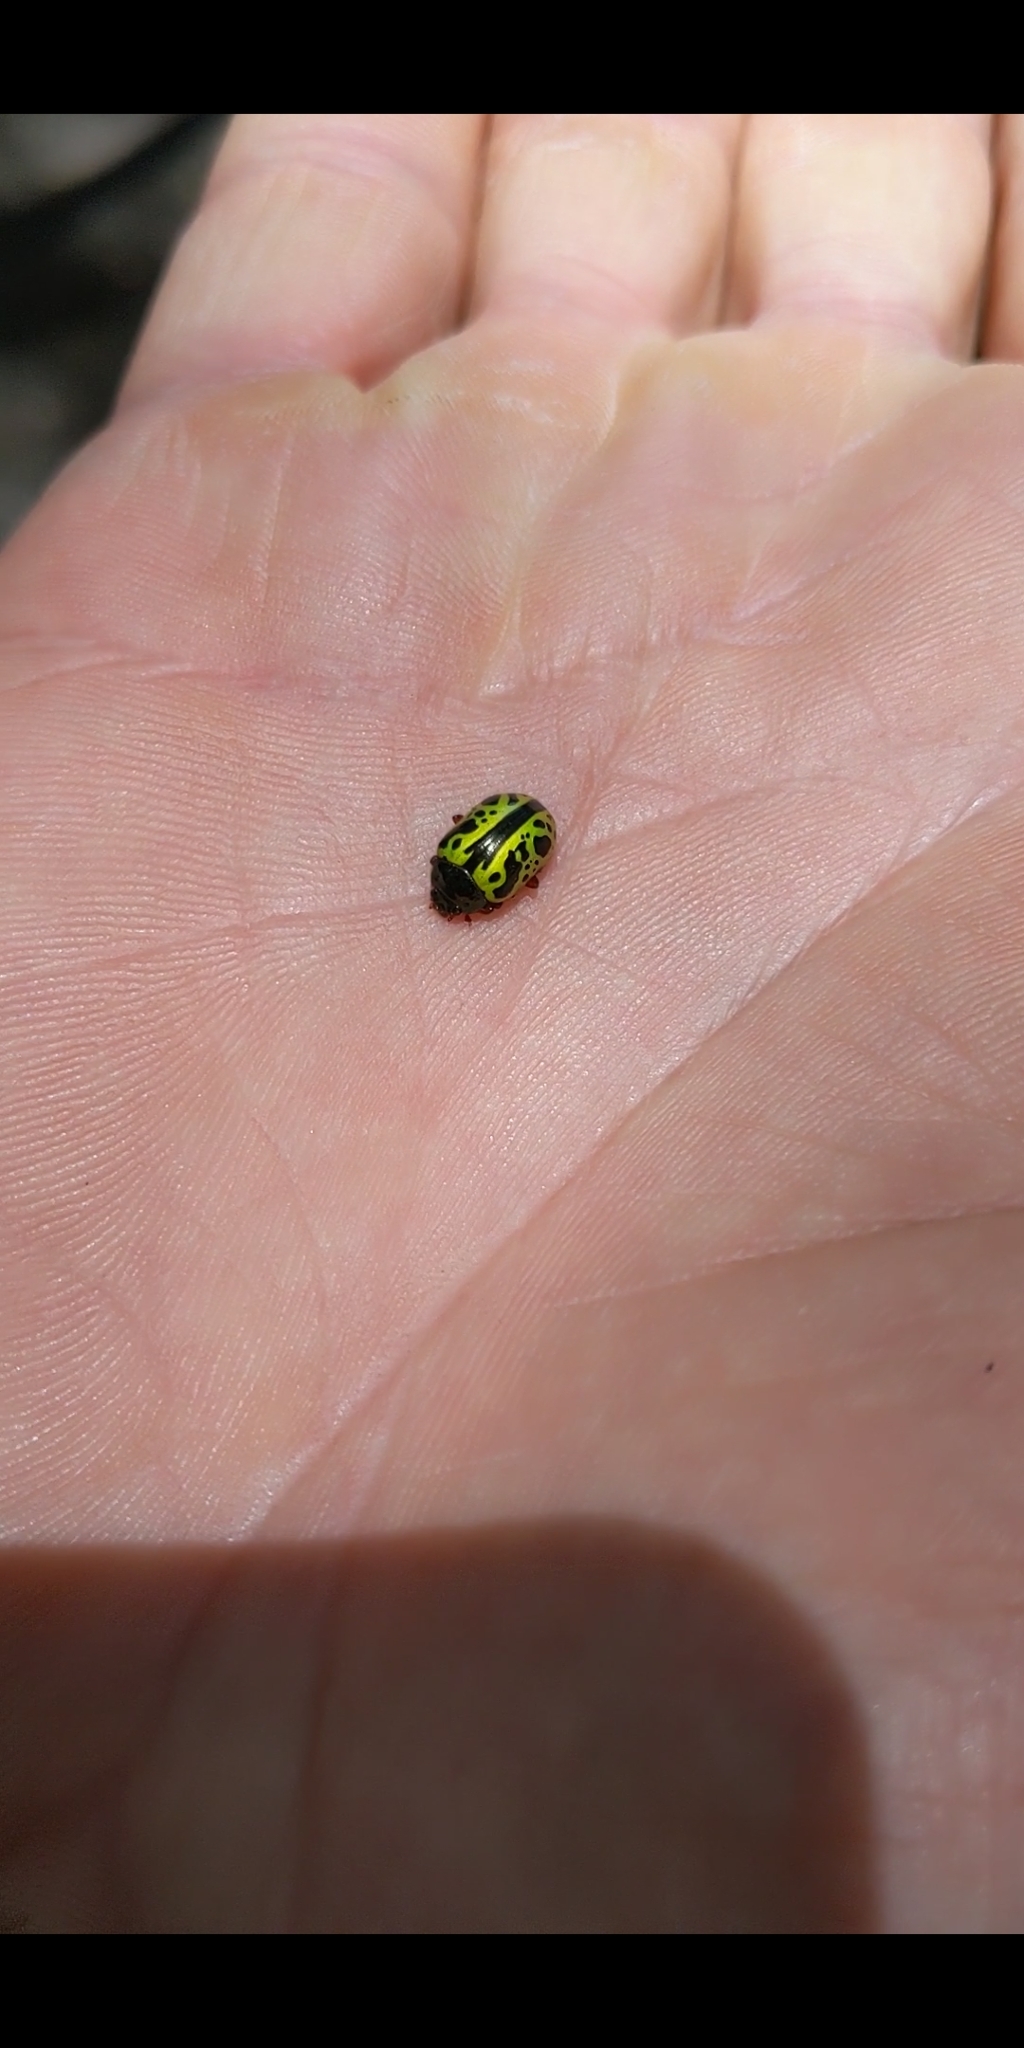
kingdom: Animalia
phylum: Arthropoda
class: Insecta
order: Coleoptera
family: Chrysomelidae
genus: Calligrapha
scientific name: Calligrapha fulvipes
